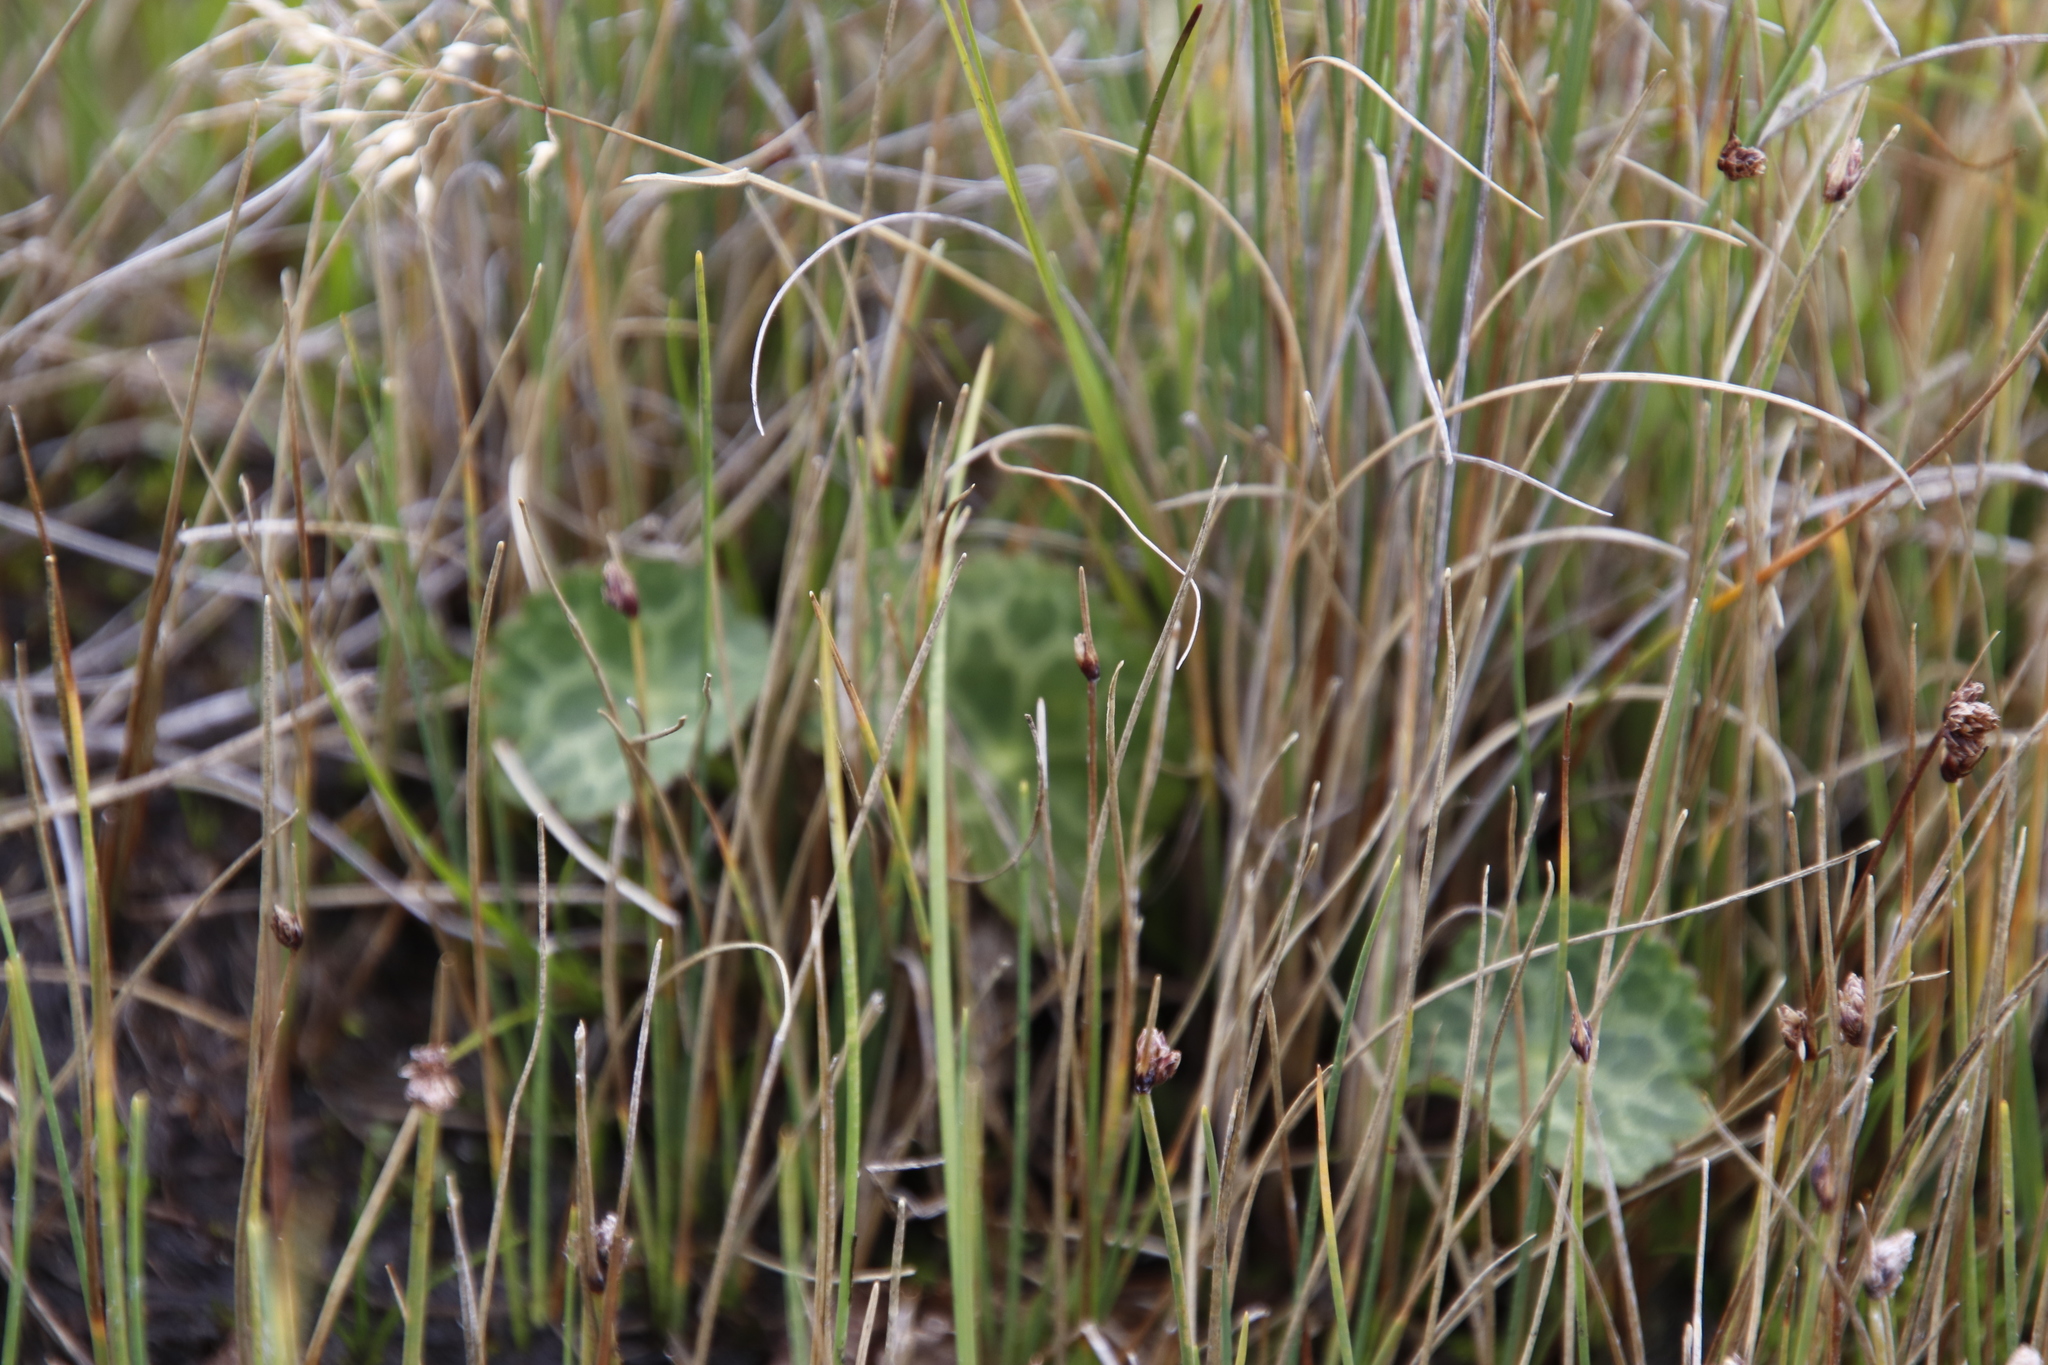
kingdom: Plantae
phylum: Tracheophyta
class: Magnoliopsida
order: Ranunculales
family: Ranunculaceae
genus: Peltocalathos
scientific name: Peltocalathos baurii
